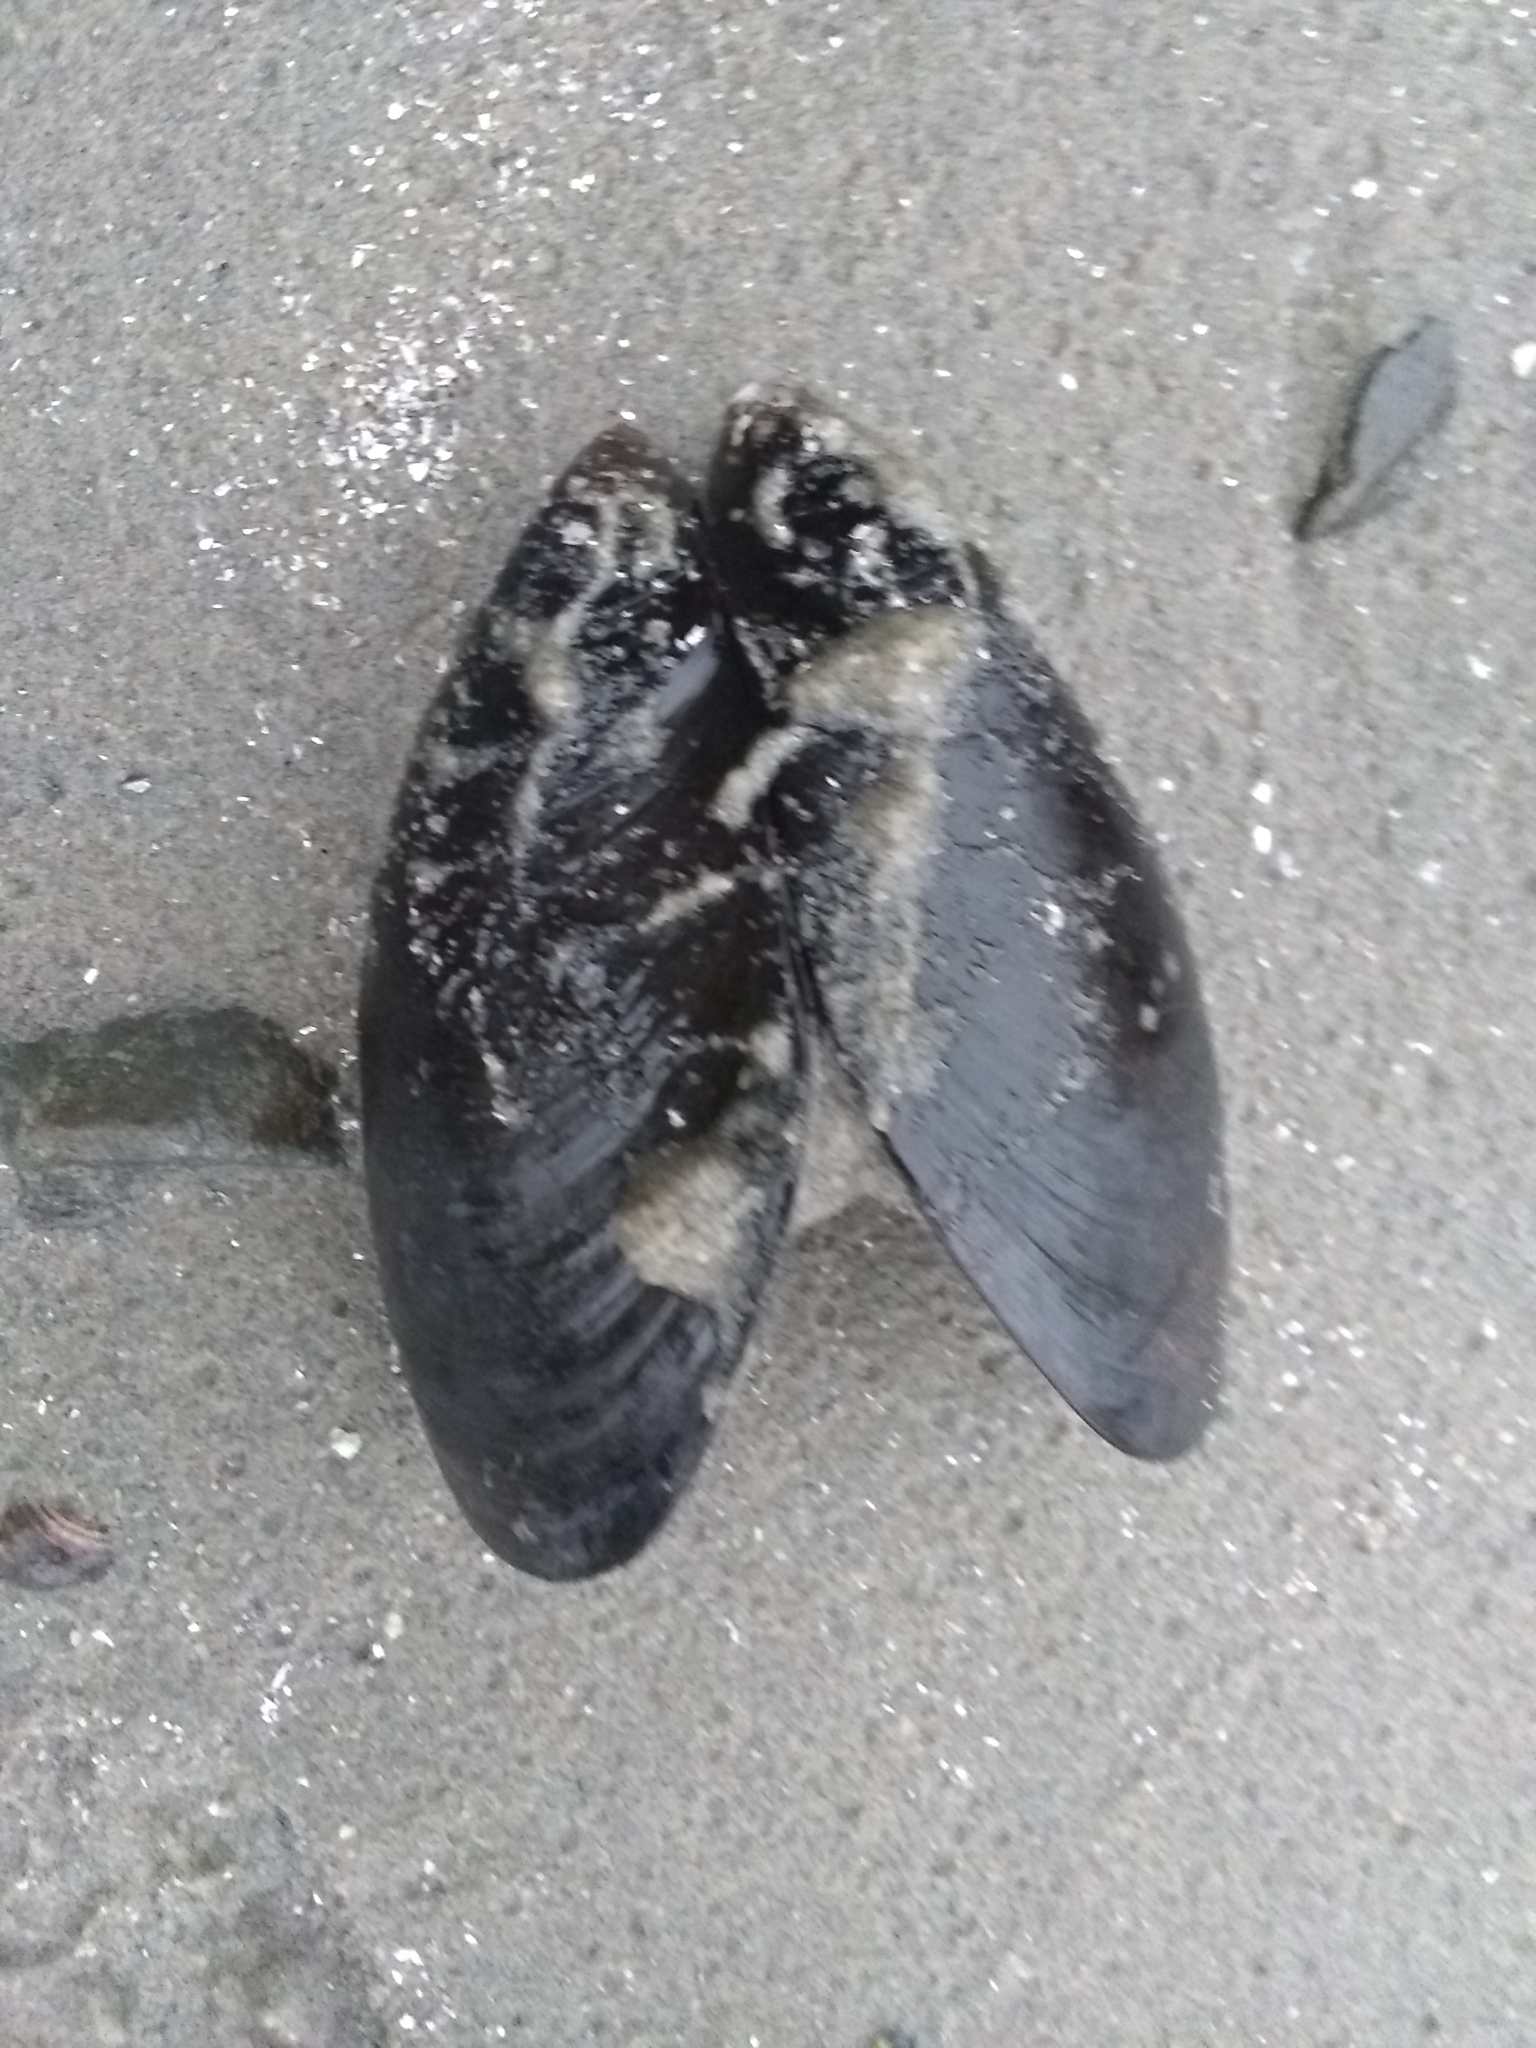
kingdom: Animalia
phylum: Mollusca
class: Bivalvia
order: Mytilida
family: Mytilidae
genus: Mytilus
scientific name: Mytilus edulis
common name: Blue mussel
